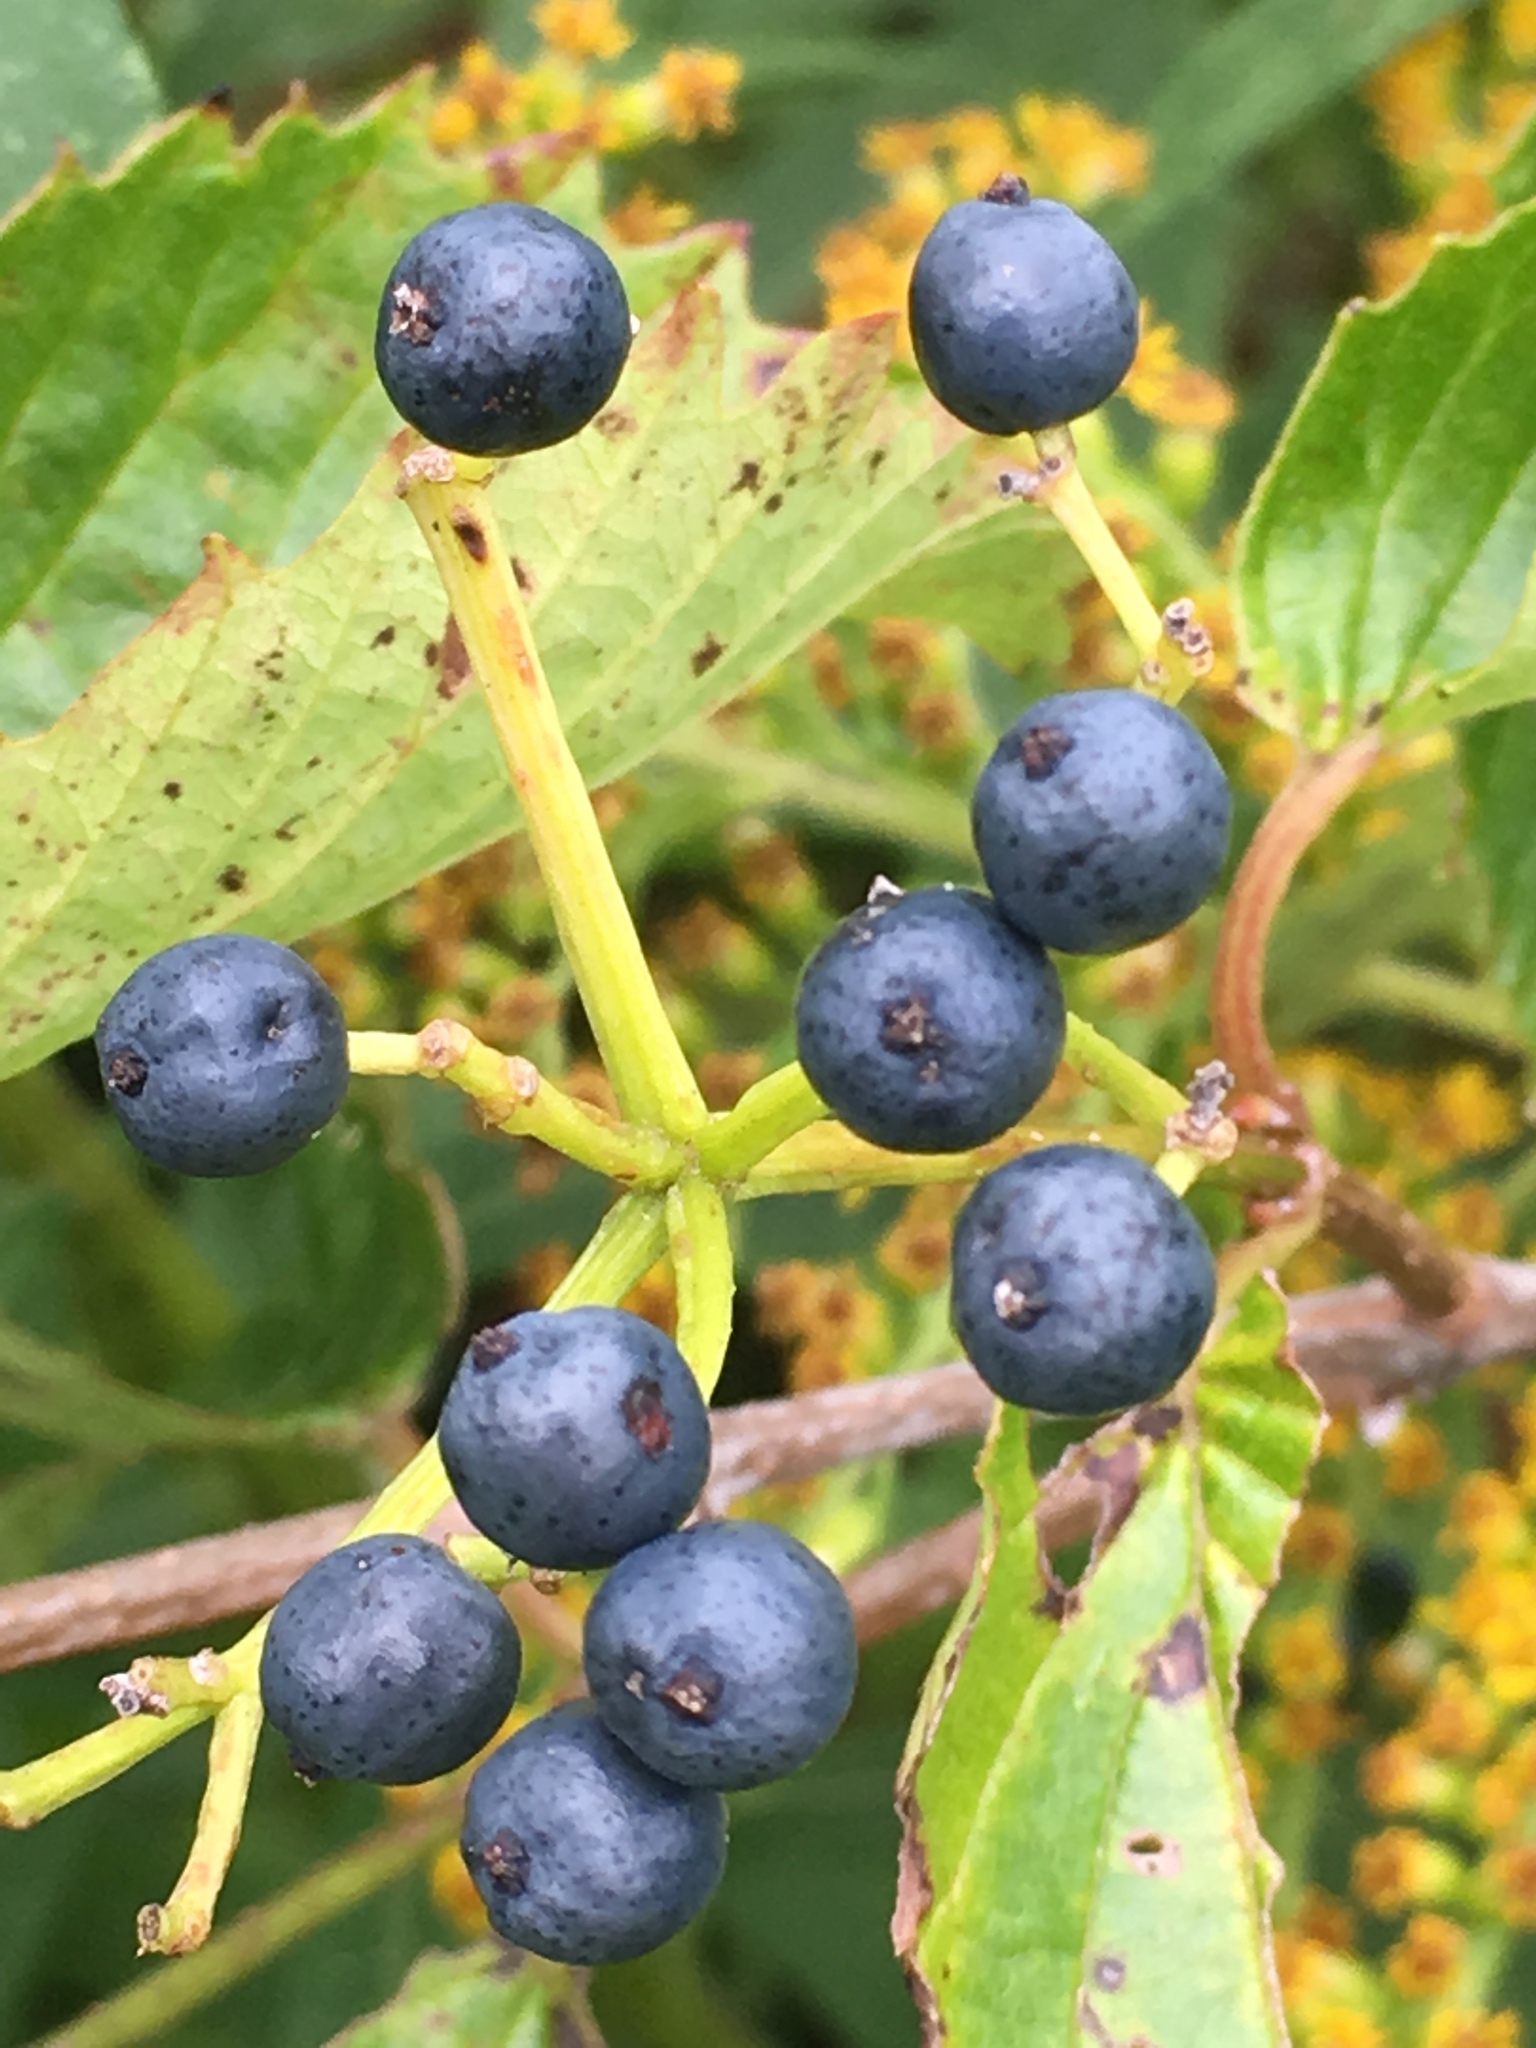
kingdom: Plantae
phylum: Tracheophyta
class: Magnoliopsida
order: Dipsacales
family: Viburnaceae
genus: Viburnum
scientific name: Viburnum dentatum
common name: Arrow-wood
